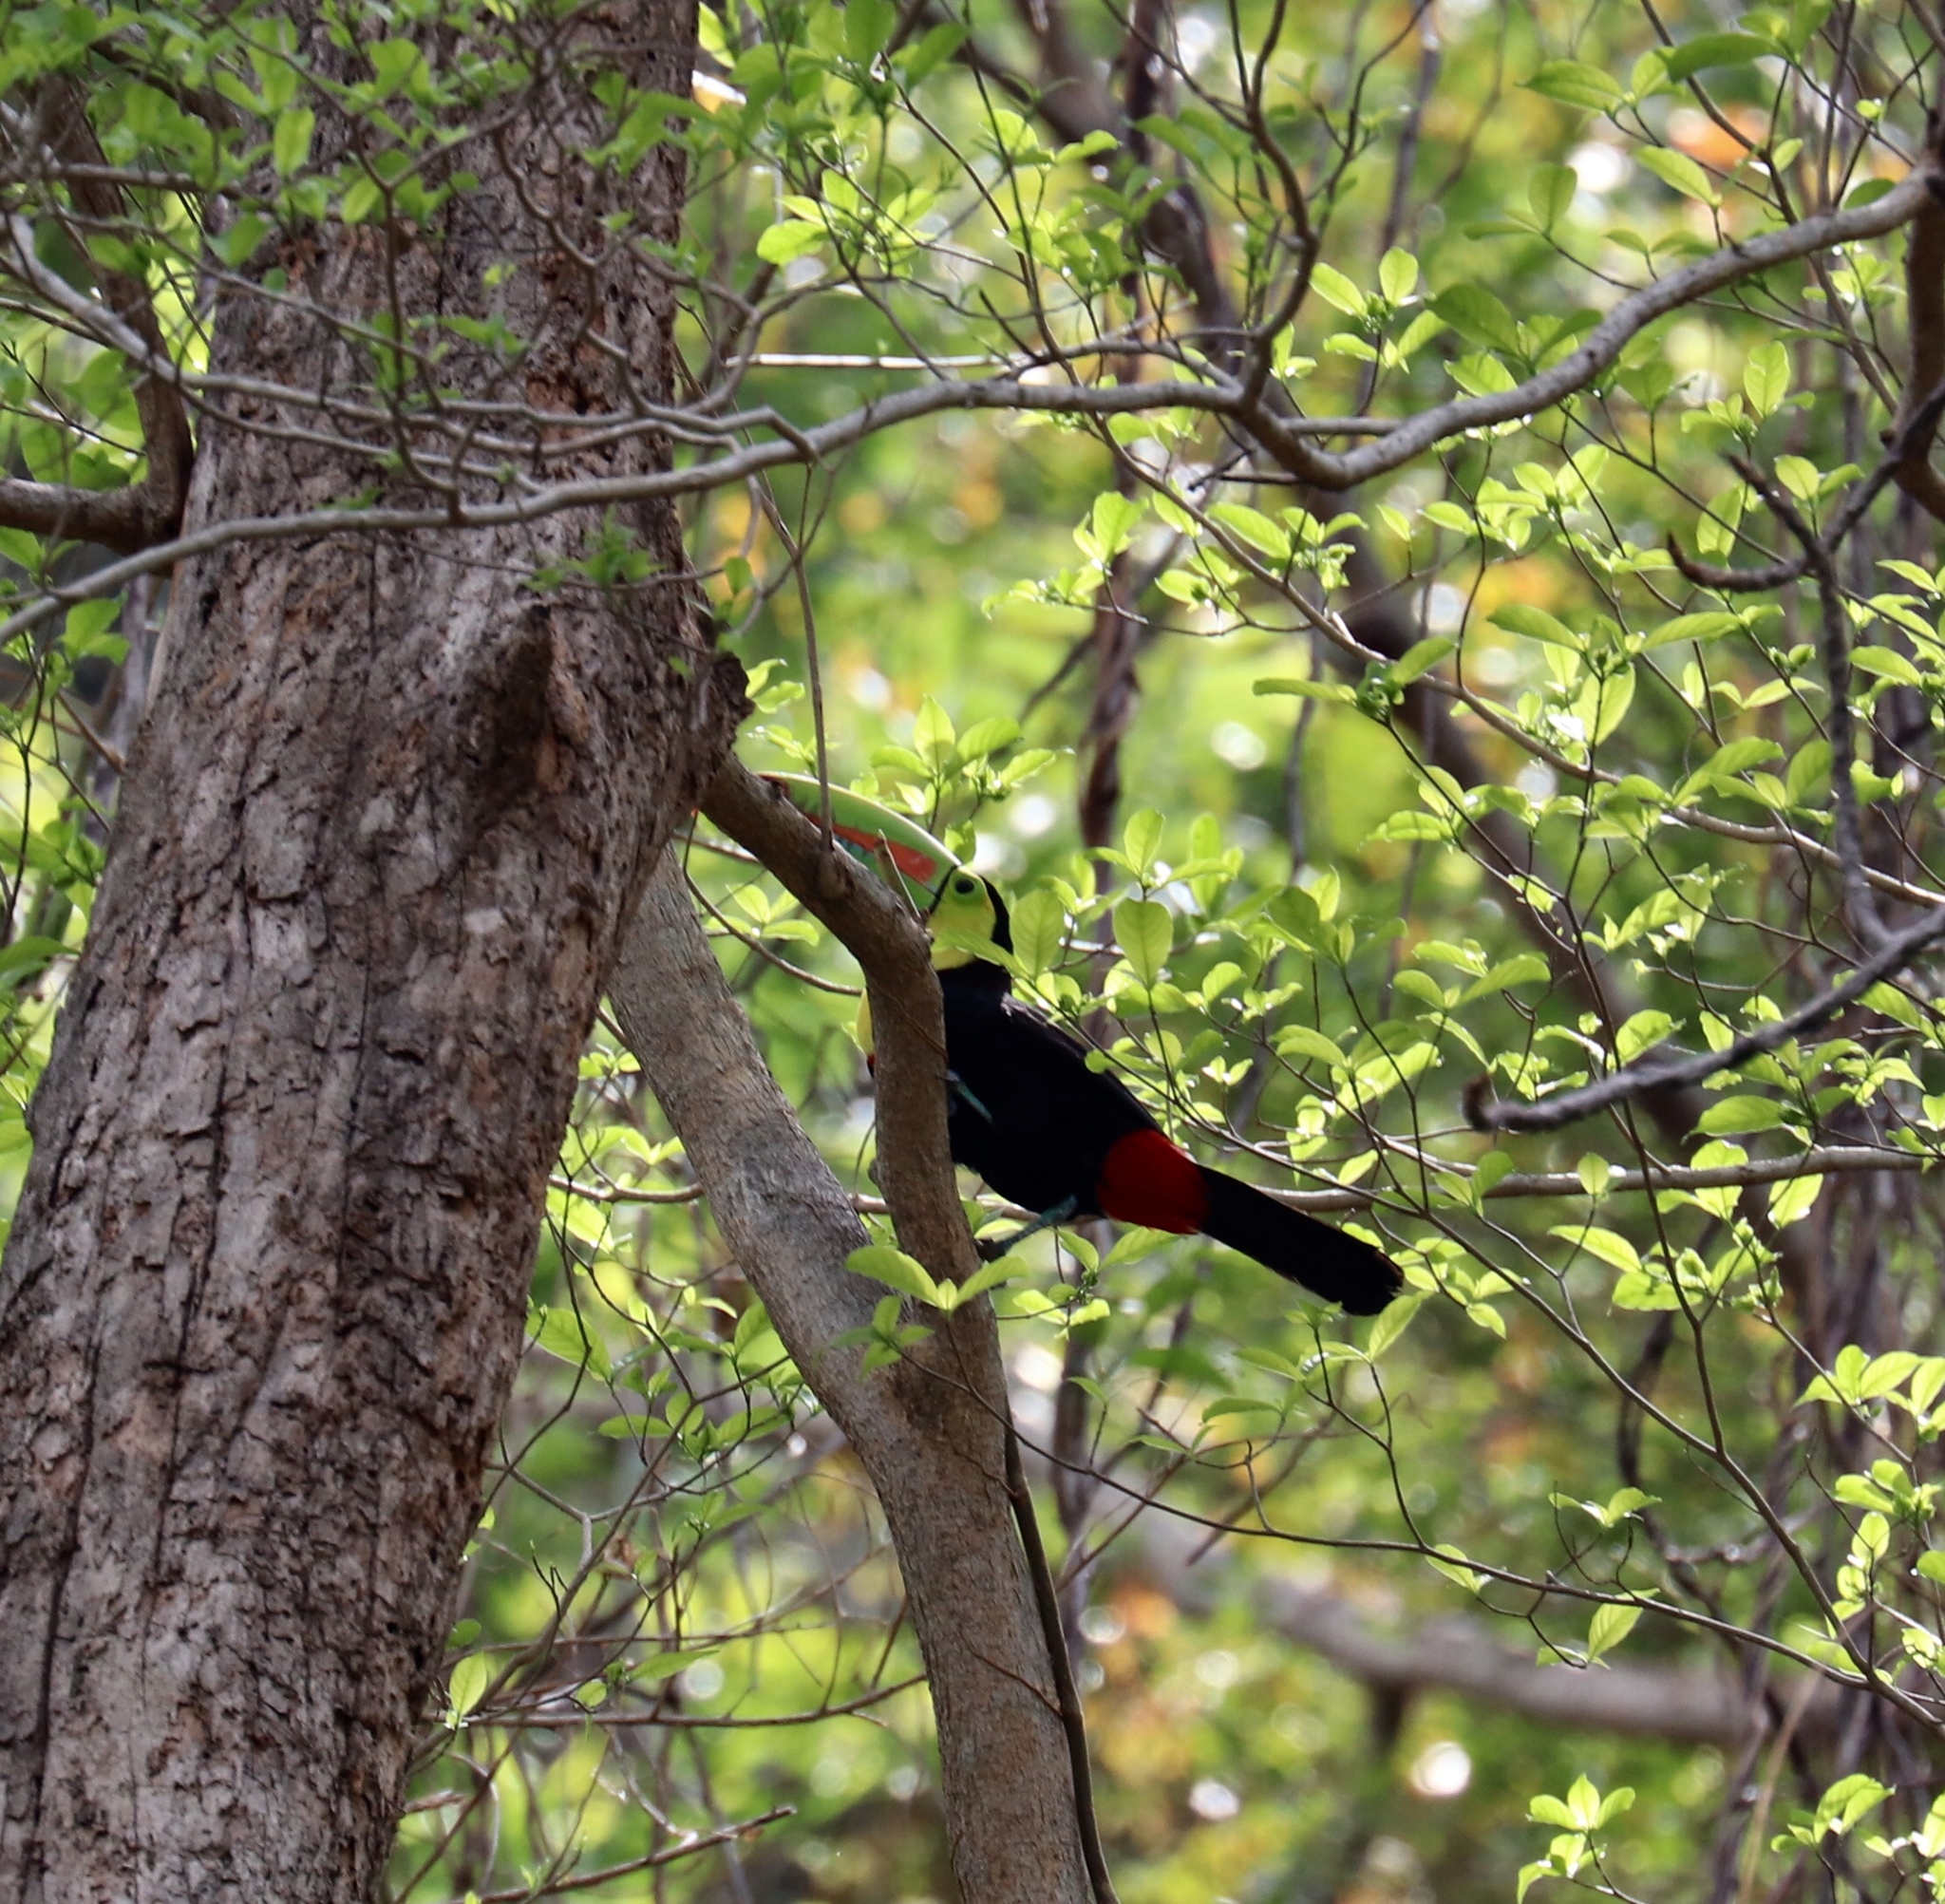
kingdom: Animalia
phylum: Chordata
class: Aves
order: Piciformes
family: Ramphastidae
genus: Ramphastos
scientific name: Ramphastos sulfuratus
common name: Keel-billed toucan
